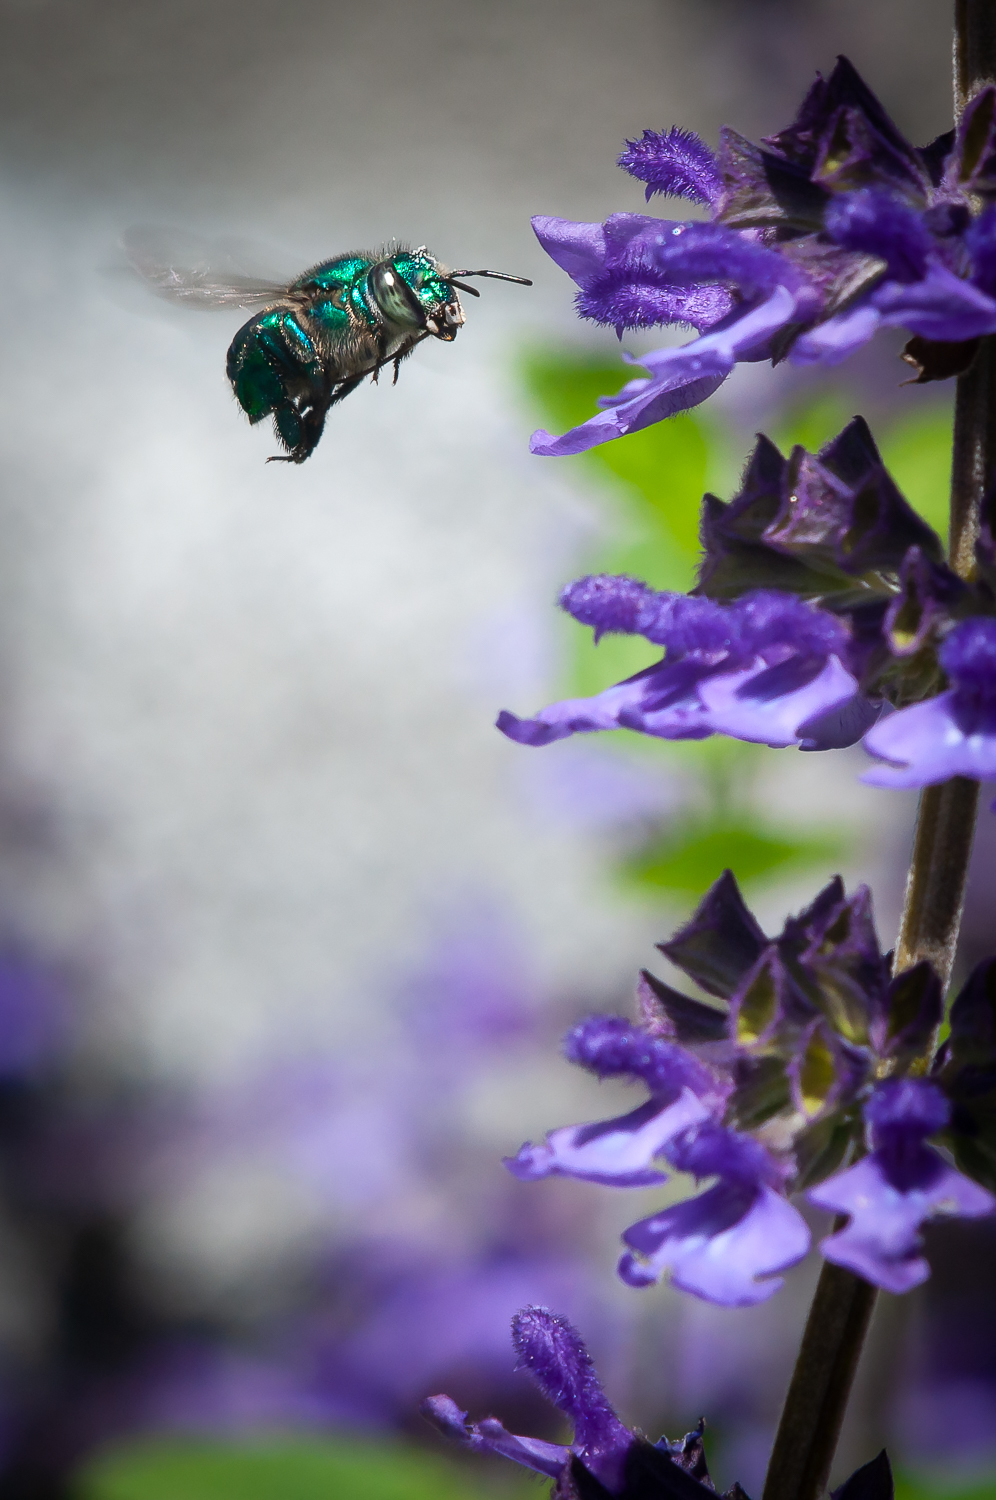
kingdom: Animalia
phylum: Arthropoda
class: Insecta
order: Hymenoptera
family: Apidae
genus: Euglossa
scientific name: Euglossa
